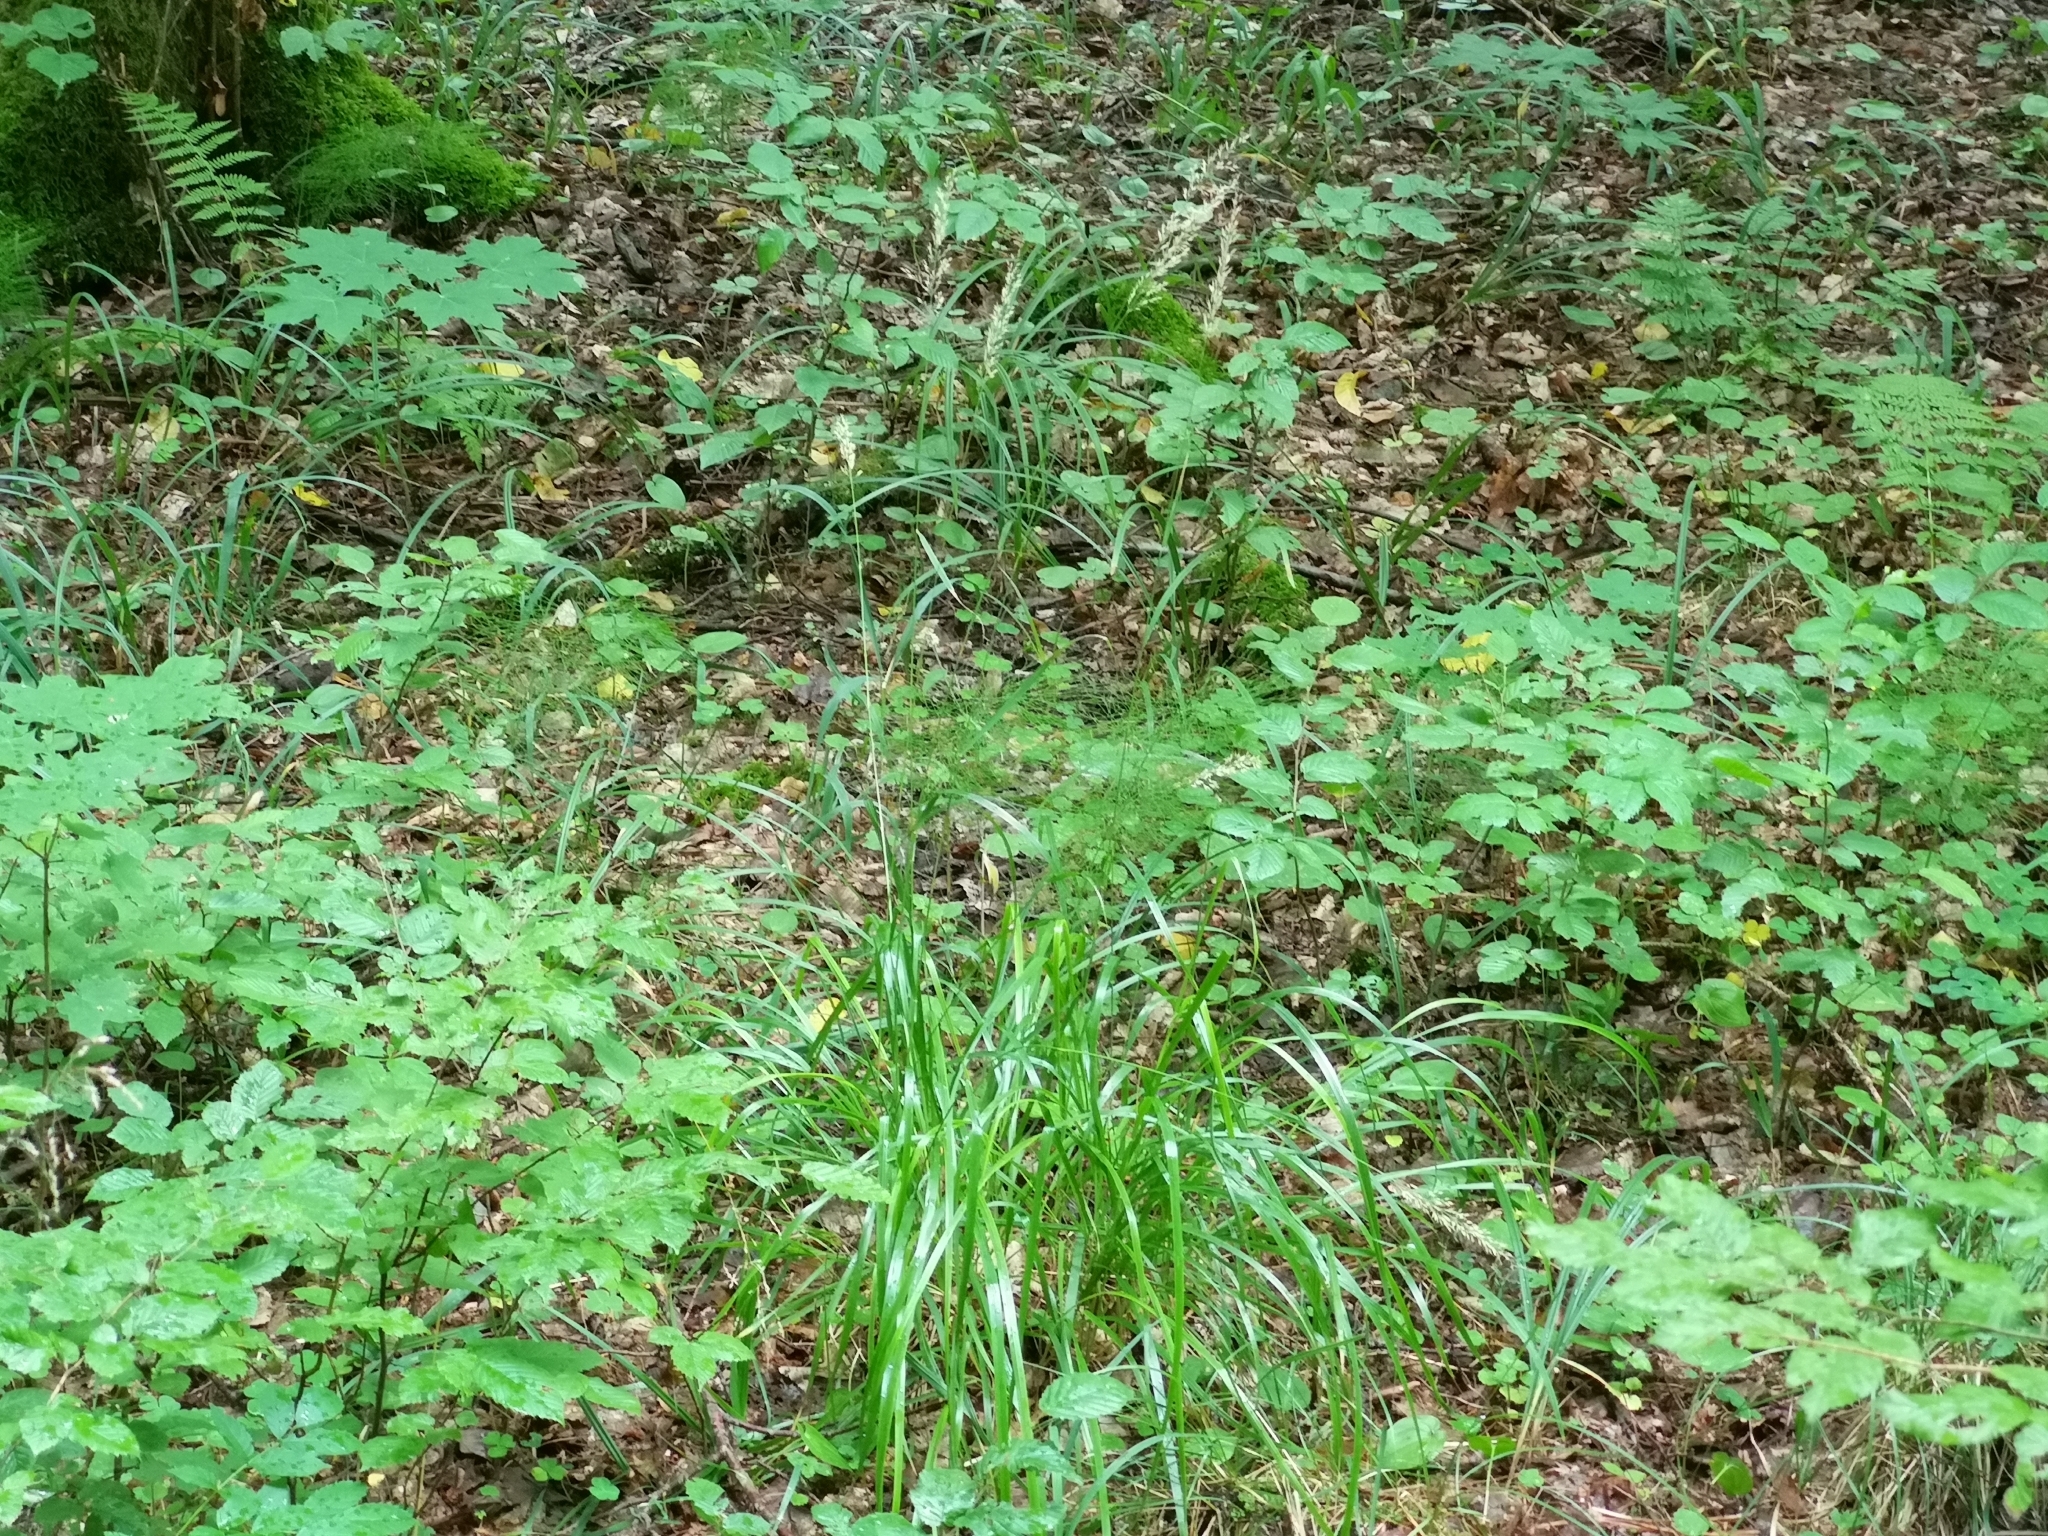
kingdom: Plantae
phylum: Tracheophyta
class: Liliopsida
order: Poales
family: Poaceae
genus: Calamagrostis
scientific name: Calamagrostis arundinacea
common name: Metskastik
